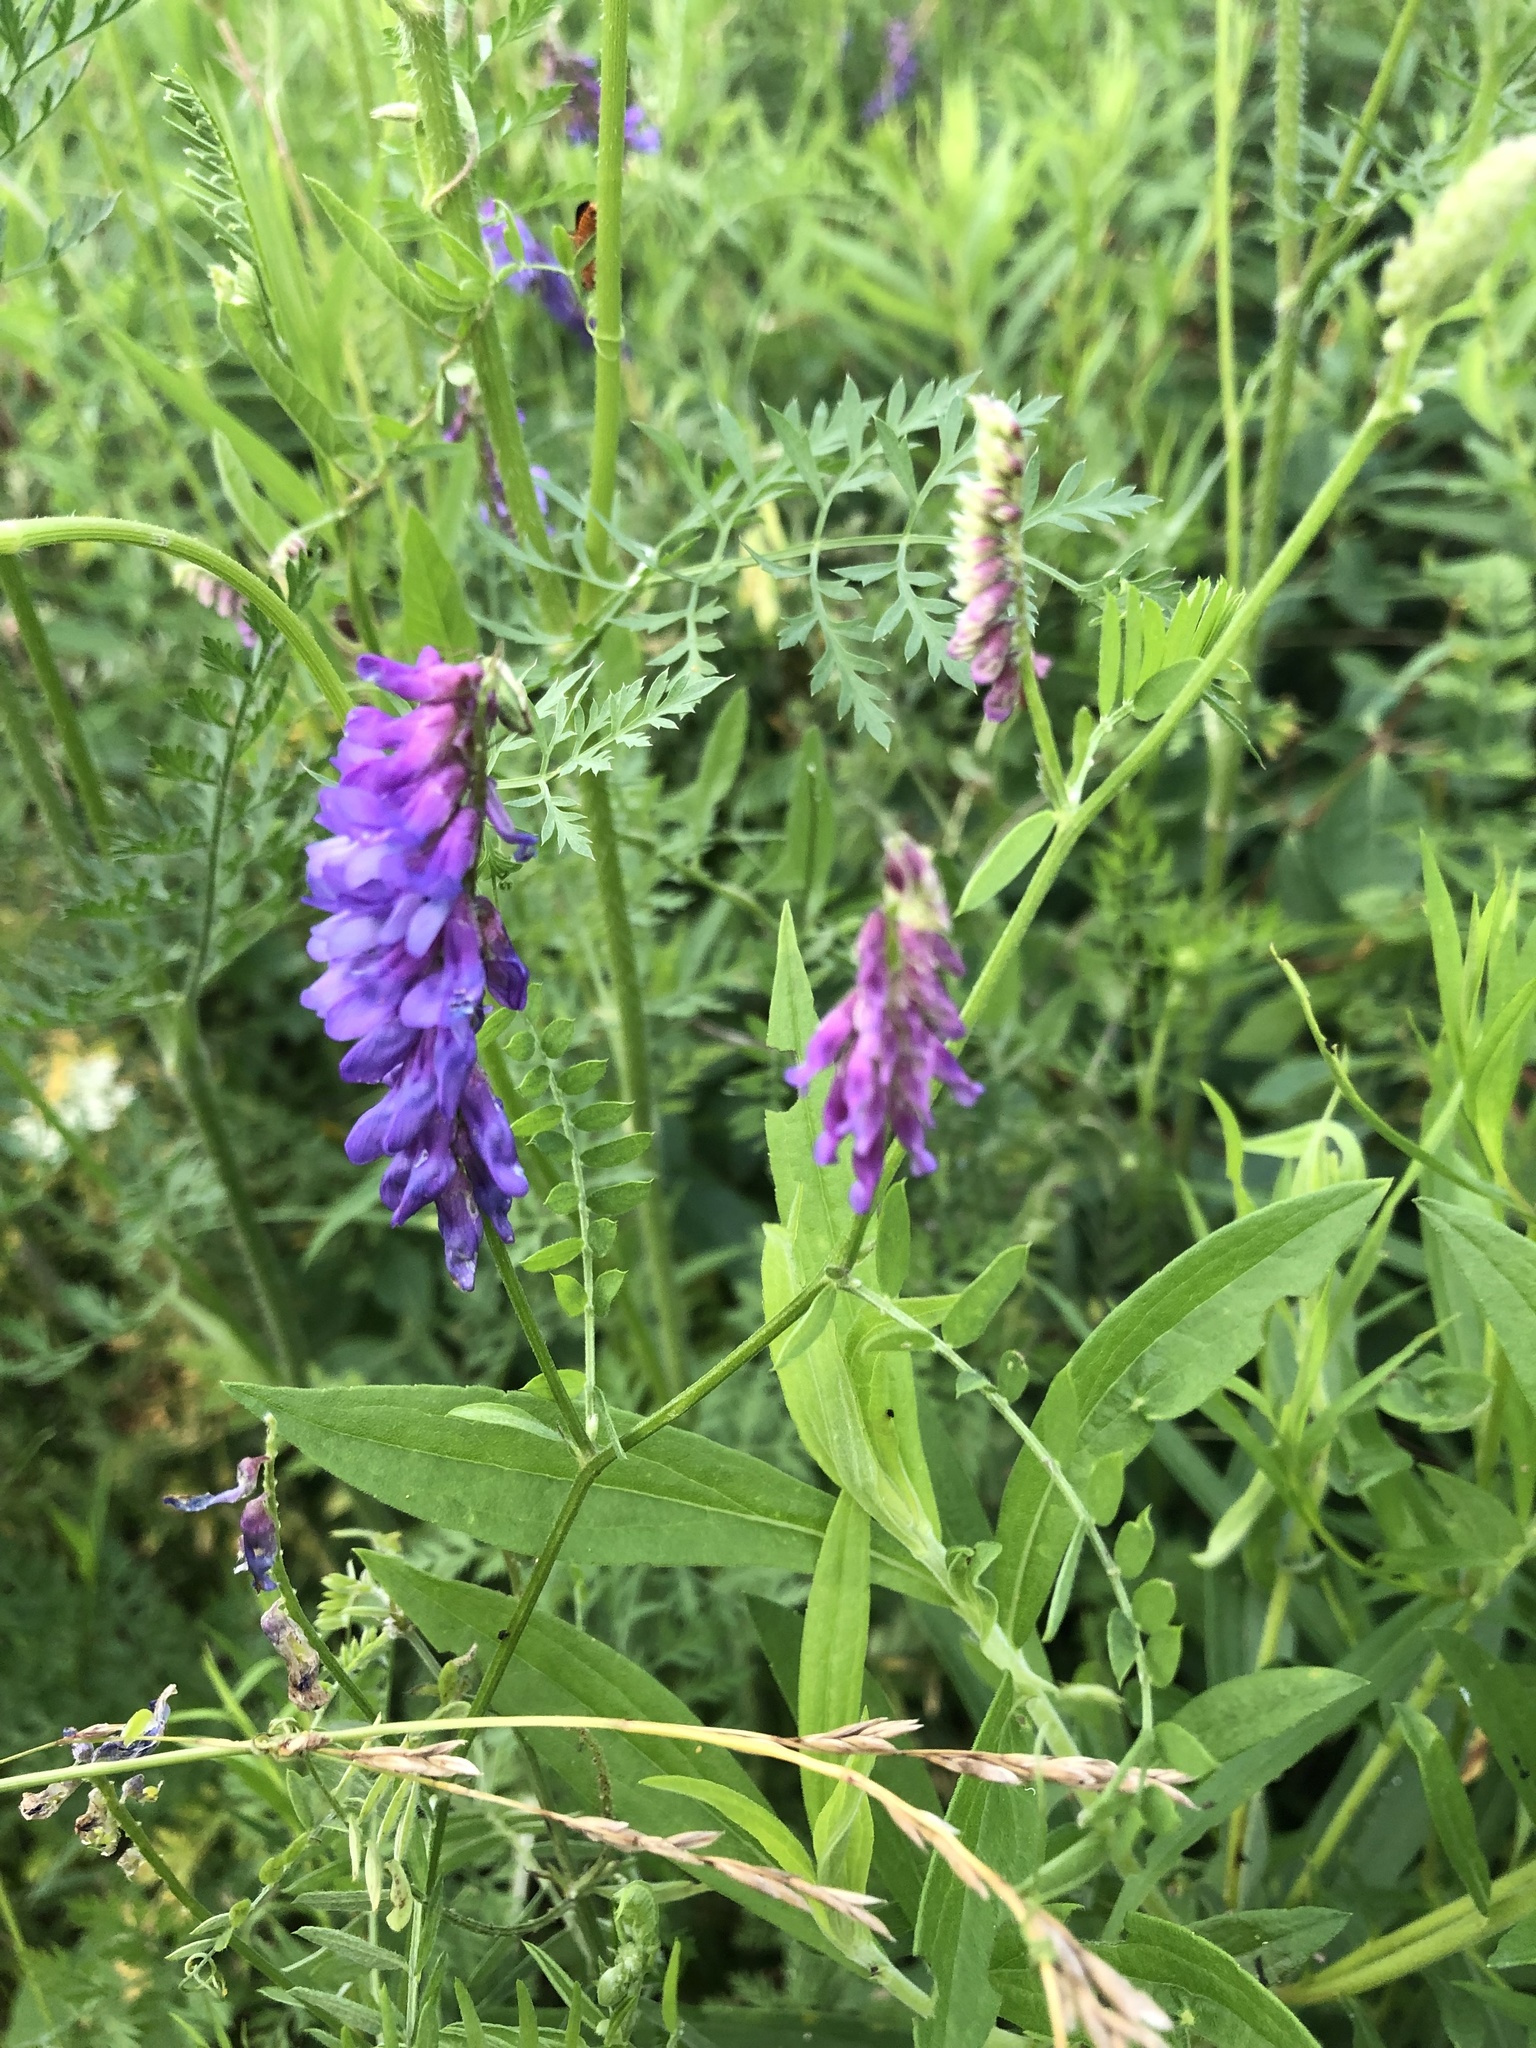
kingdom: Plantae
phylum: Tracheophyta
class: Magnoliopsida
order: Fabales
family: Fabaceae
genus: Vicia
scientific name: Vicia cracca
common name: Bird vetch
